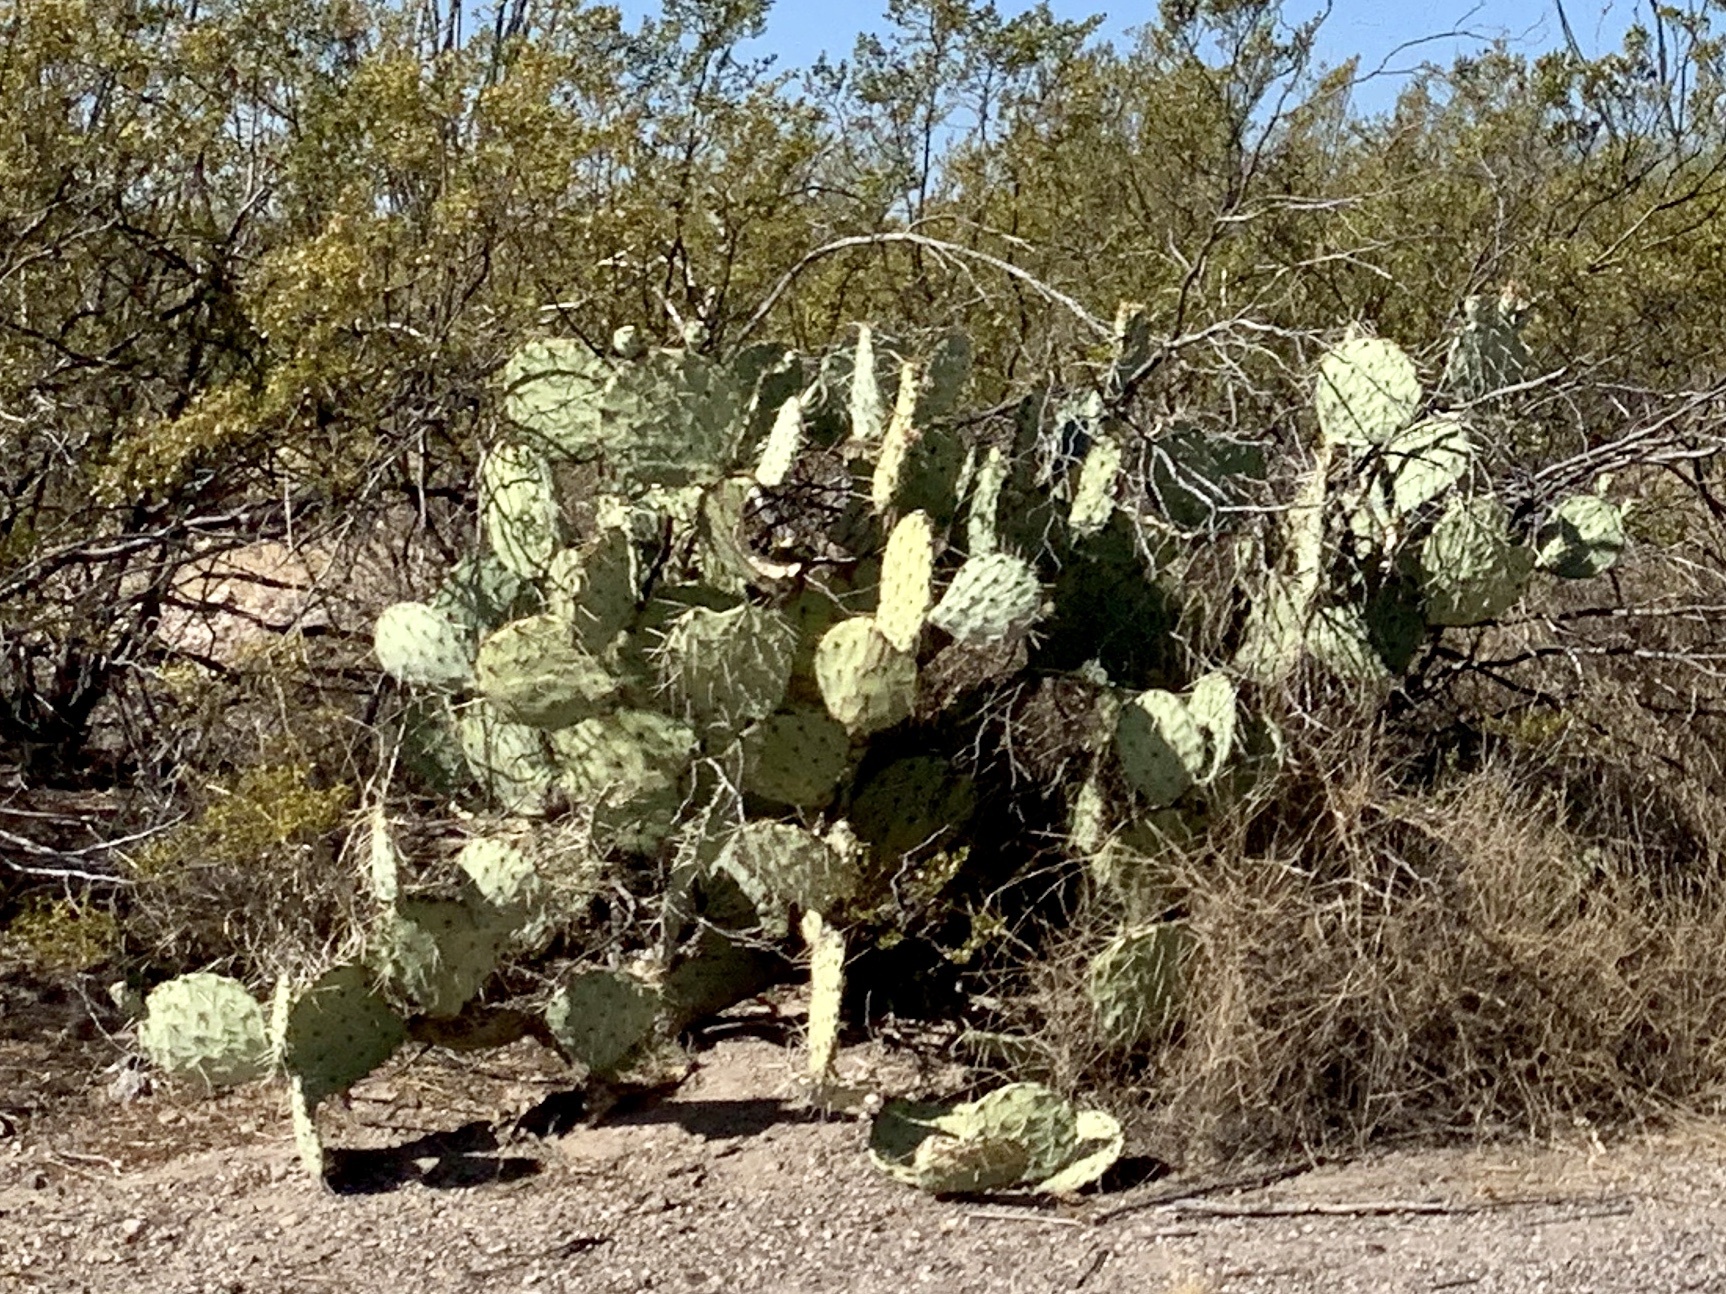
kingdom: Plantae
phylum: Tracheophyta
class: Magnoliopsida
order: Caryophyllales
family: Cactaceae
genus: Opuntia
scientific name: Opuntia engelmannii
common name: Cactus-apple
